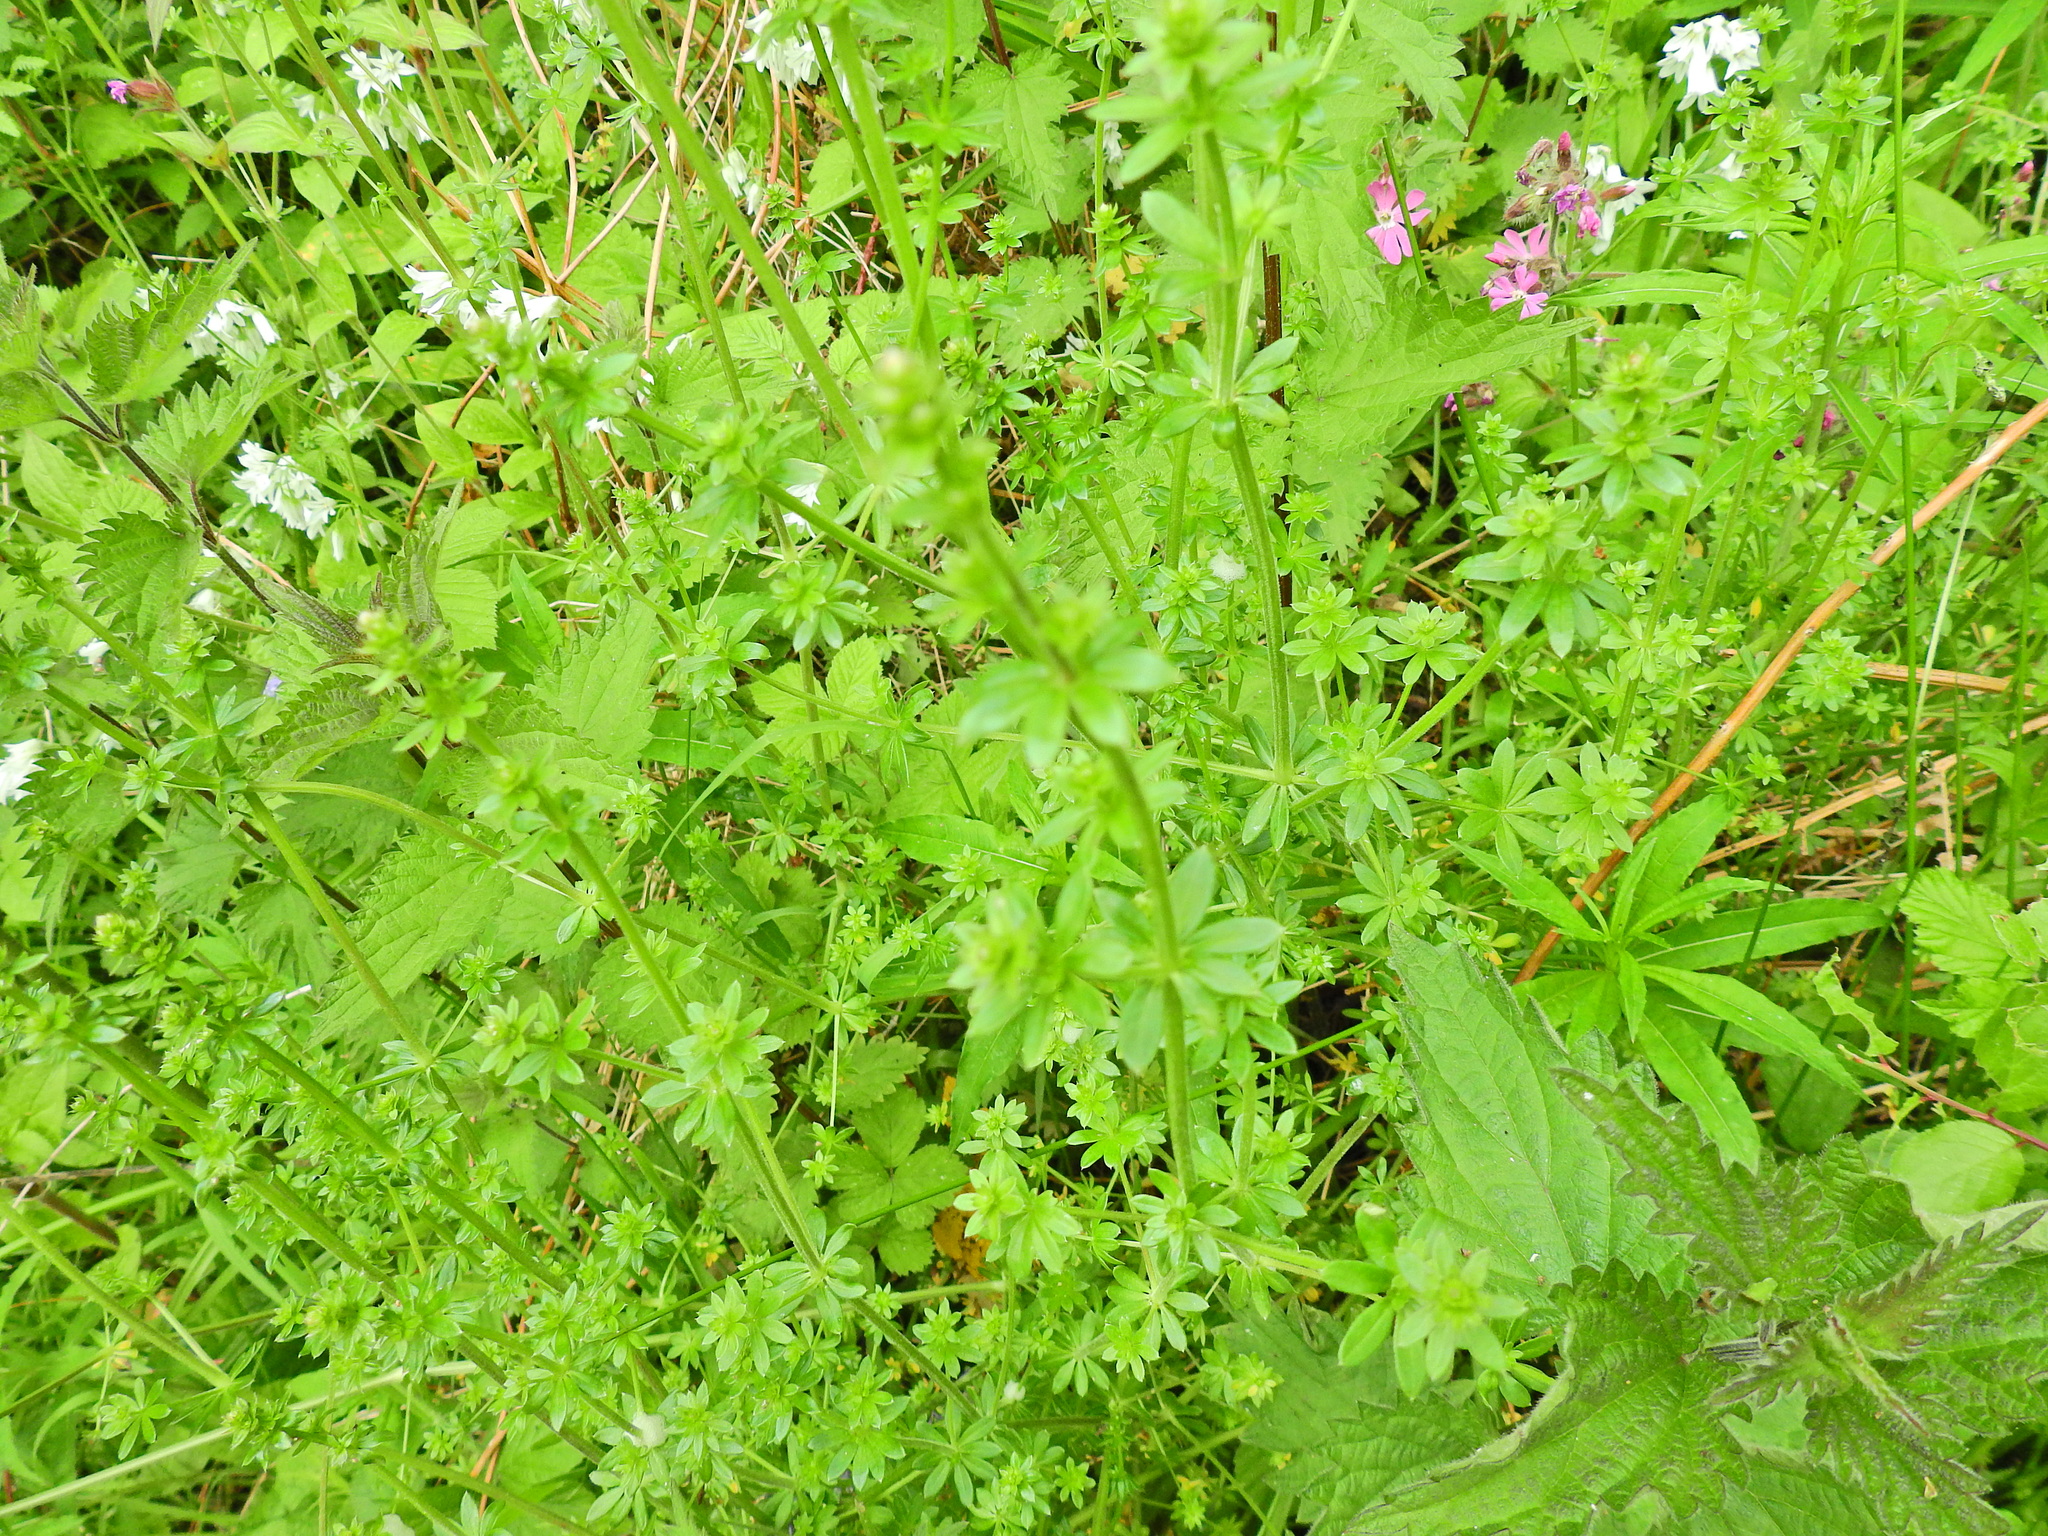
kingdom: Plantae
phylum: Tracheophyta
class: Magnoliopsida
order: Gentianales
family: Rubiaceae
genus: Galium
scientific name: Galium album
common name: White bedstraw
